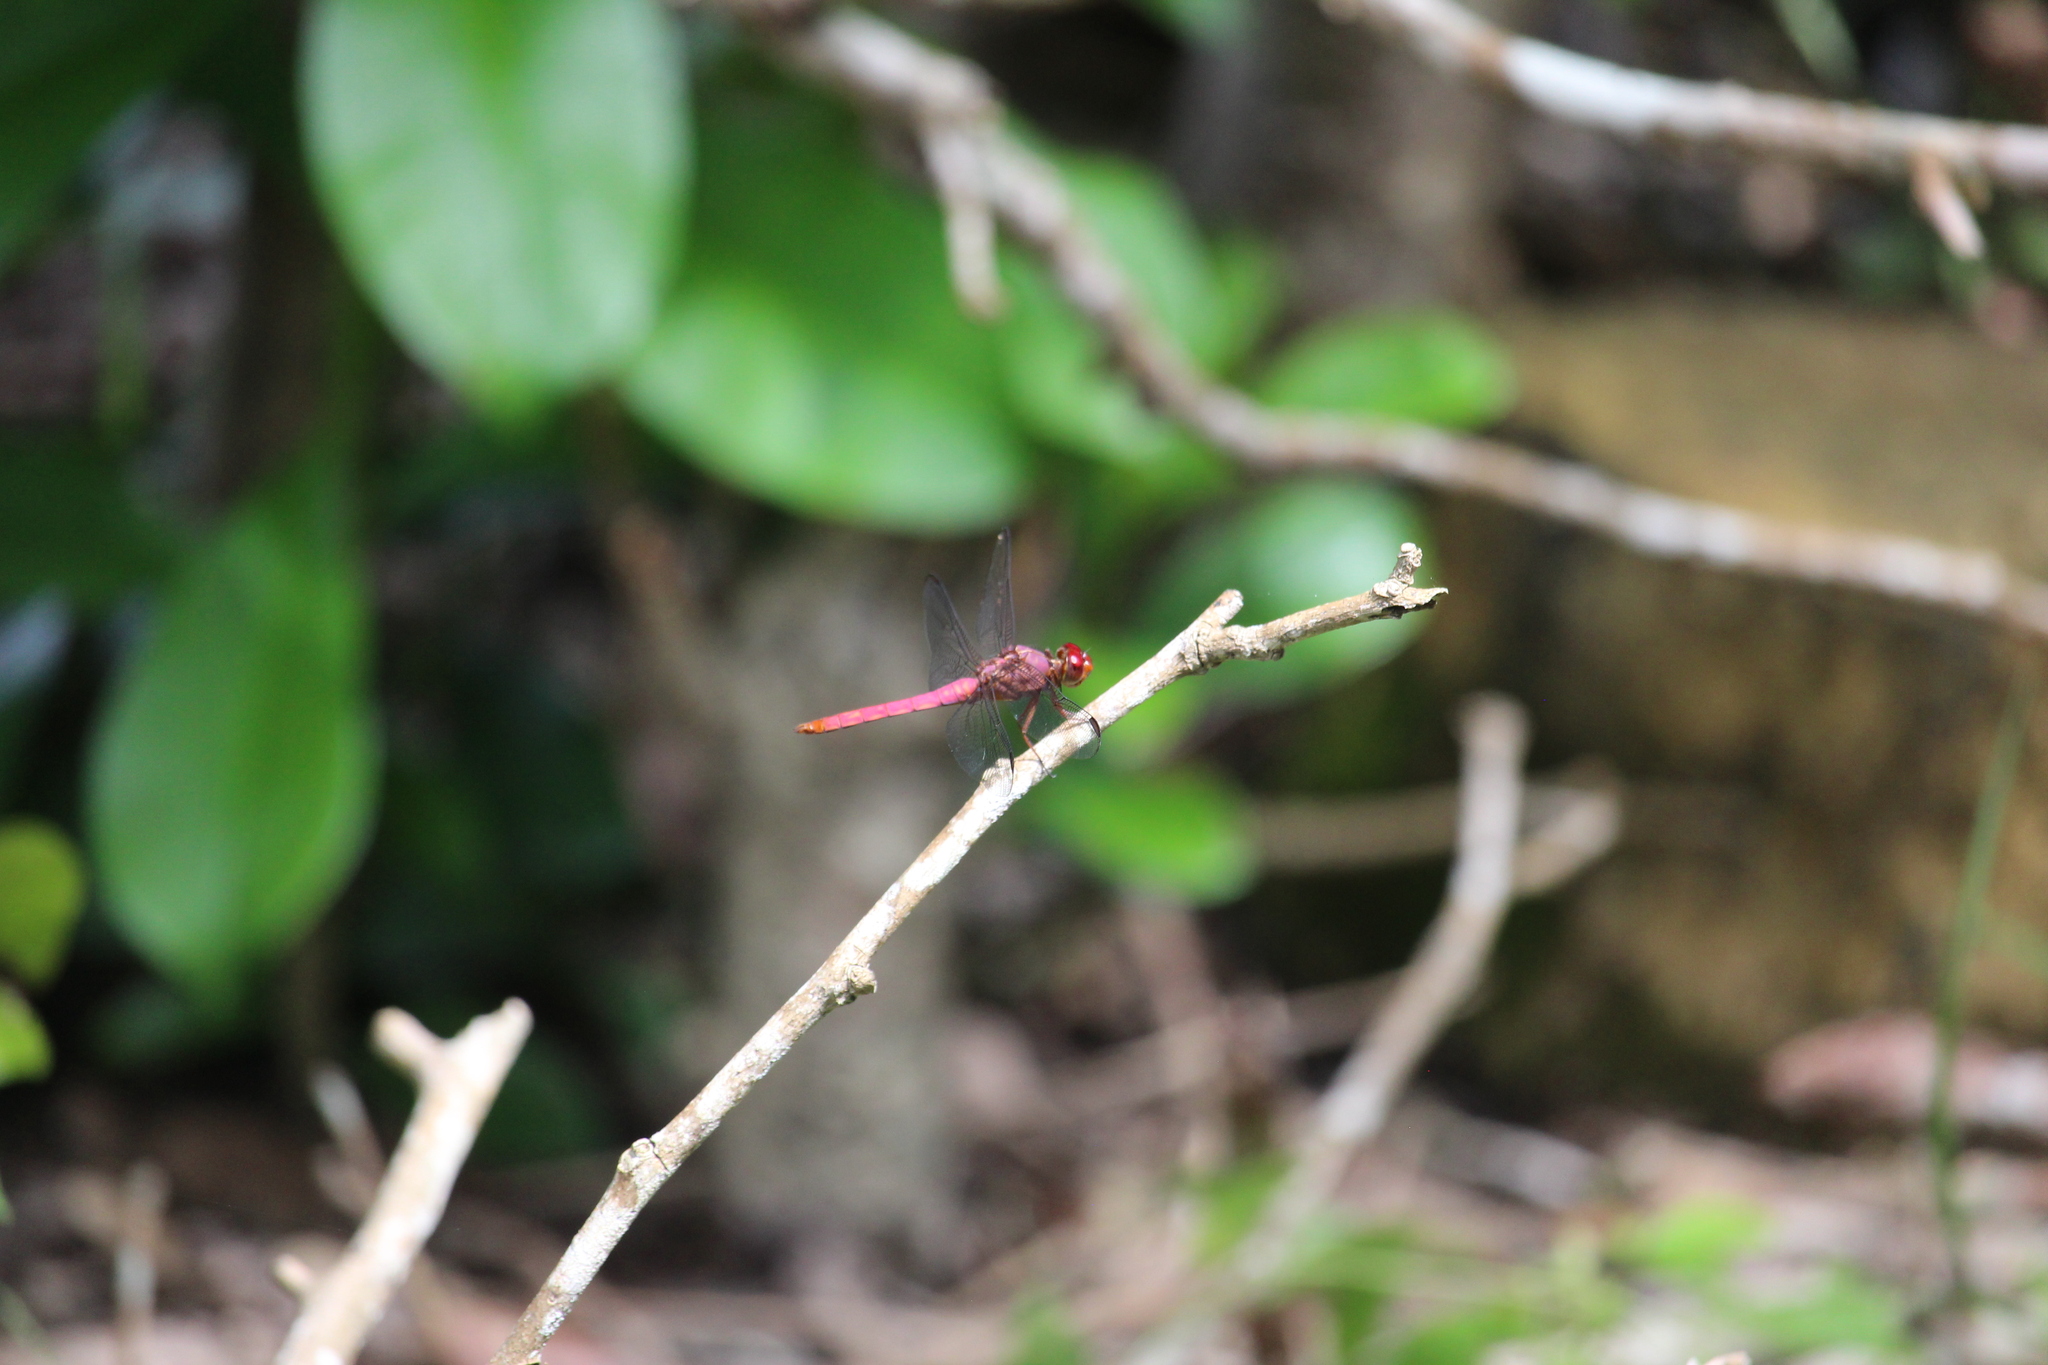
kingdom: Animalia
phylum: Arthropoda
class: Insecta
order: Odonata
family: Libellulidae
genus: Orthemis
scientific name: Orthemis discolor
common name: Carmine skimmer
